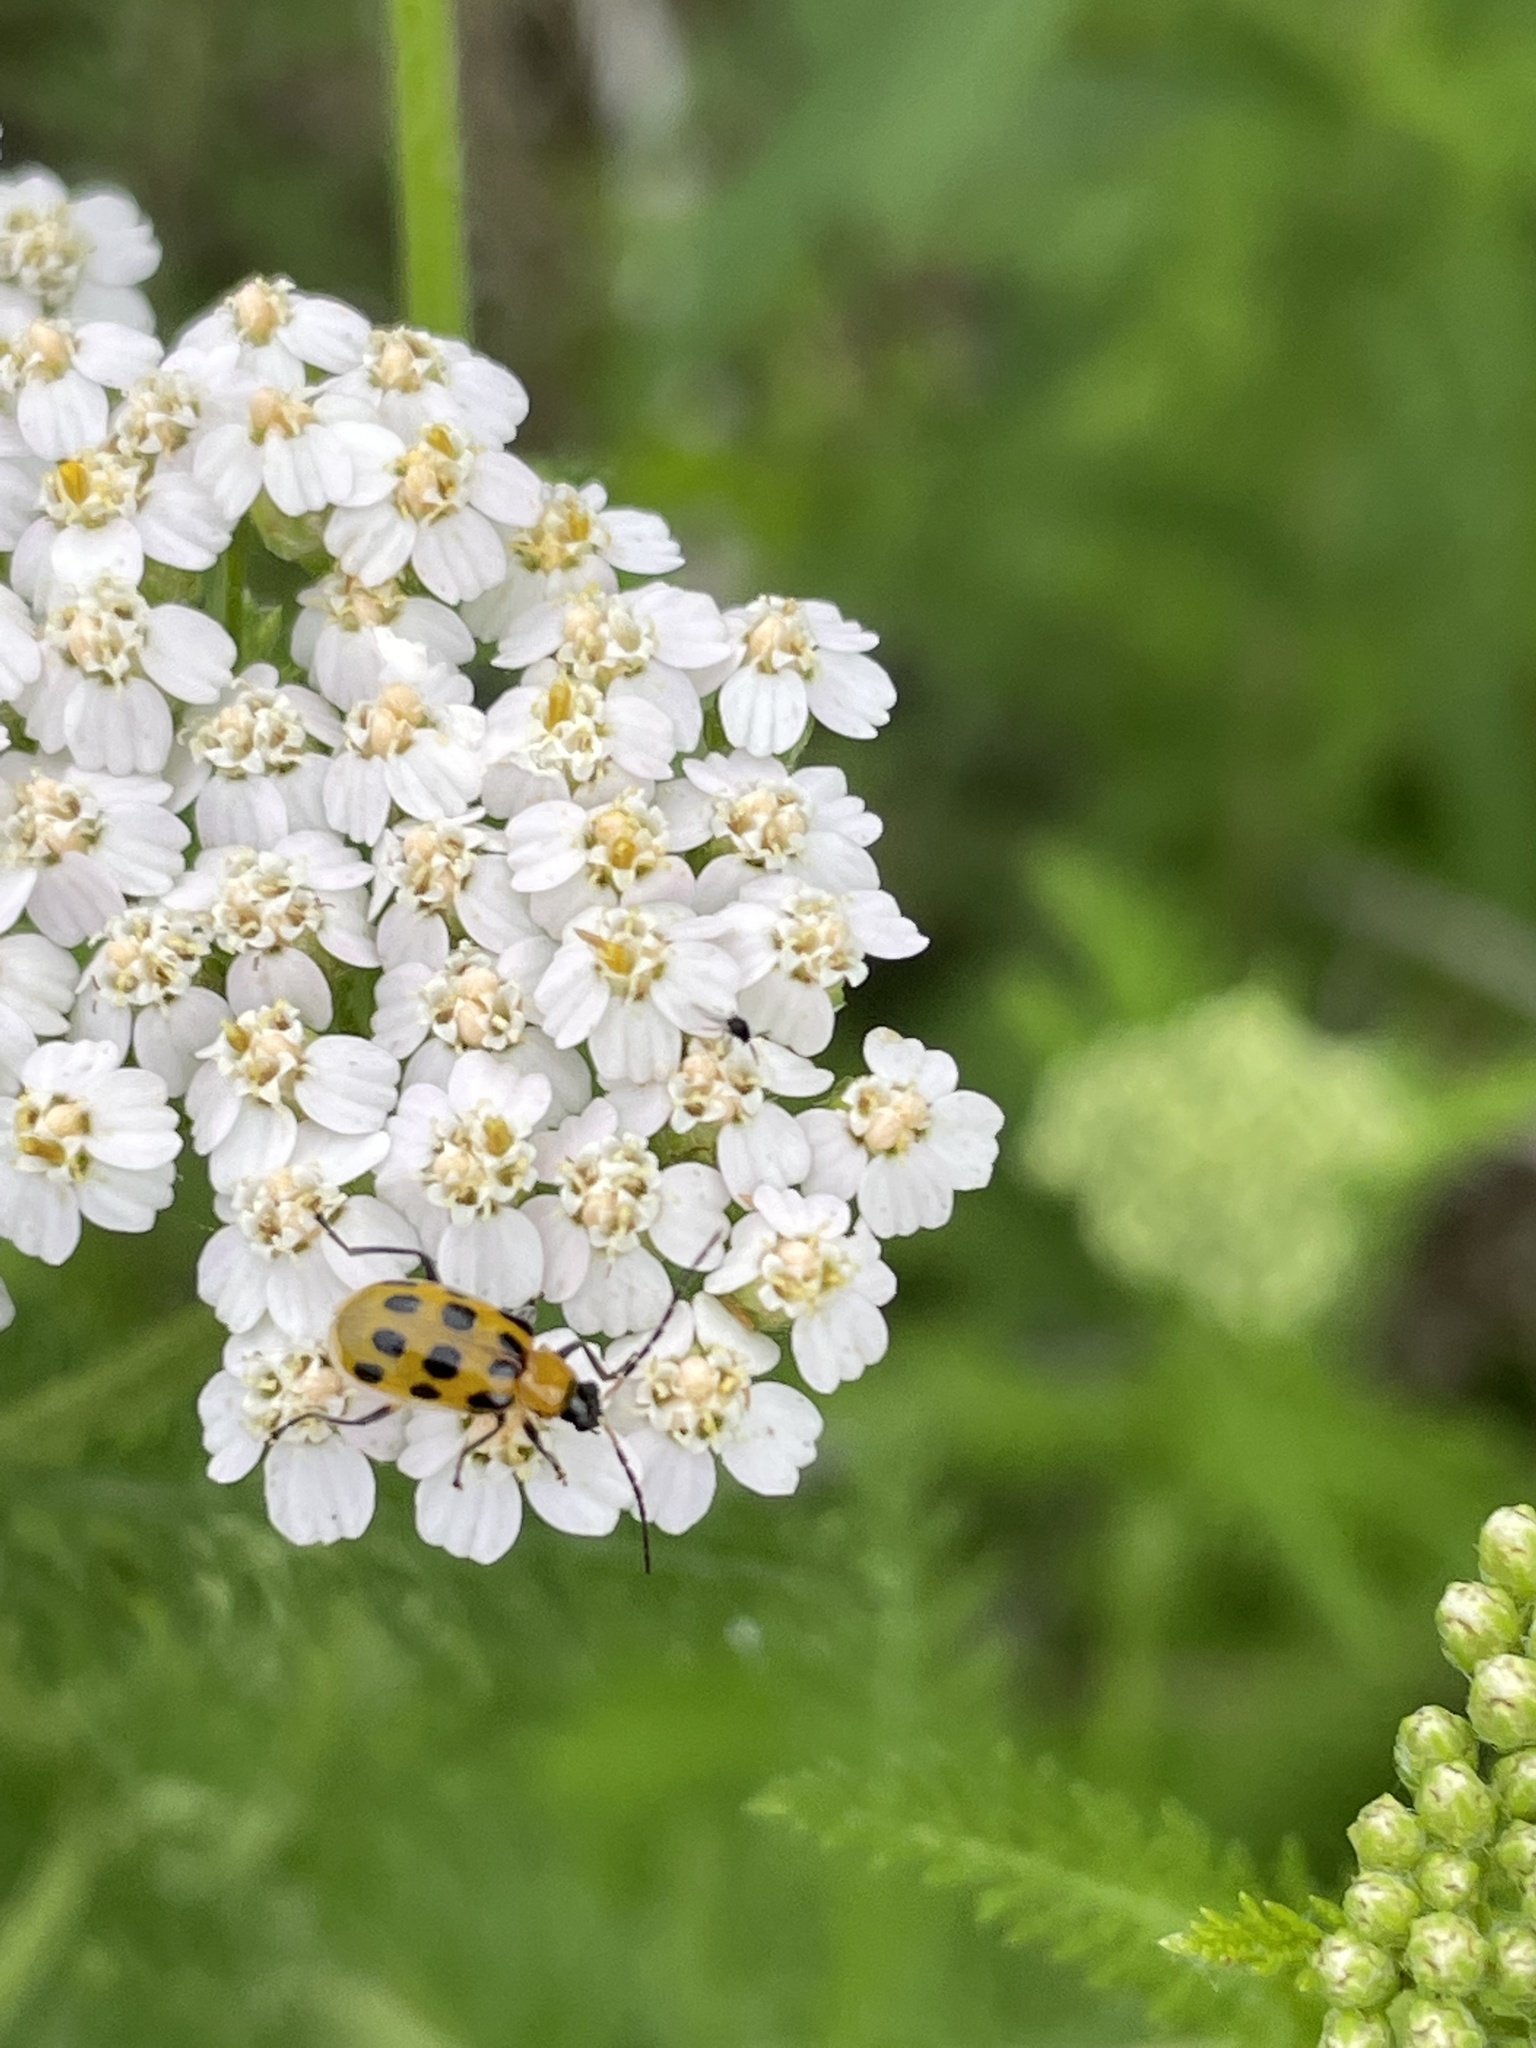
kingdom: Animalia
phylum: Arthropoda
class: Insecta
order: Coleoptera
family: Chrysomelidae
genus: Diabrotica
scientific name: Diabrotica undecimpunctata
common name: Spotted cucumber beetle
